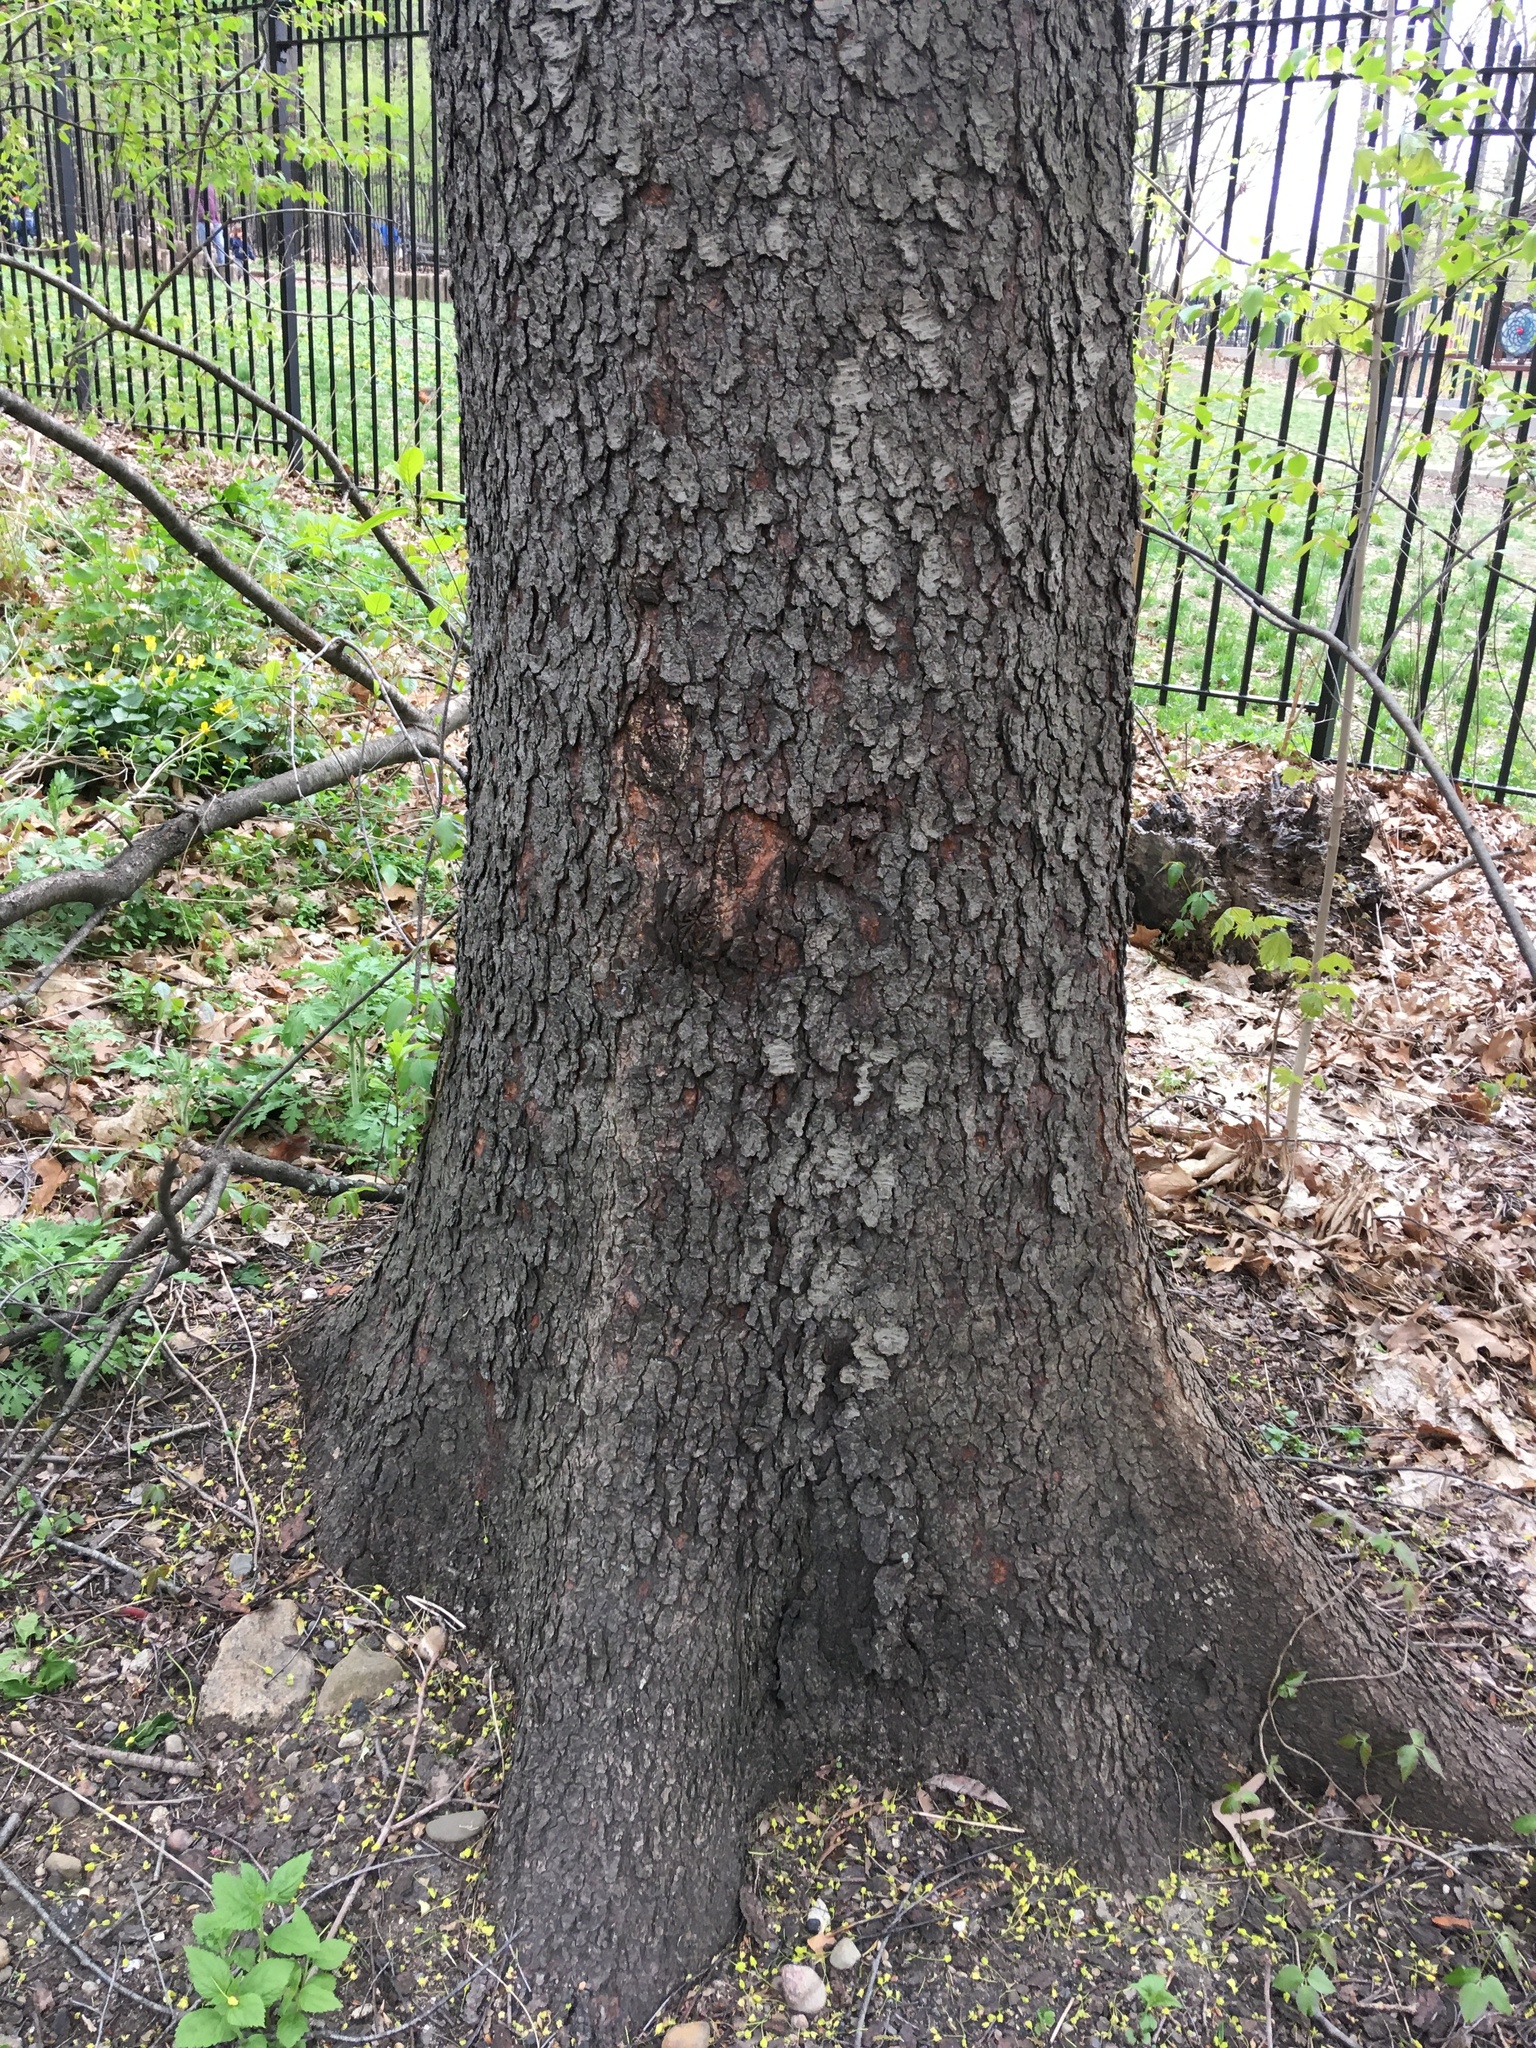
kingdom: Plantae
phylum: Tracheophyta
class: Magnoliopsida
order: Rosales
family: Rosaceae
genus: Prunus
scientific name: Prunus serotina
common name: Black cherry
